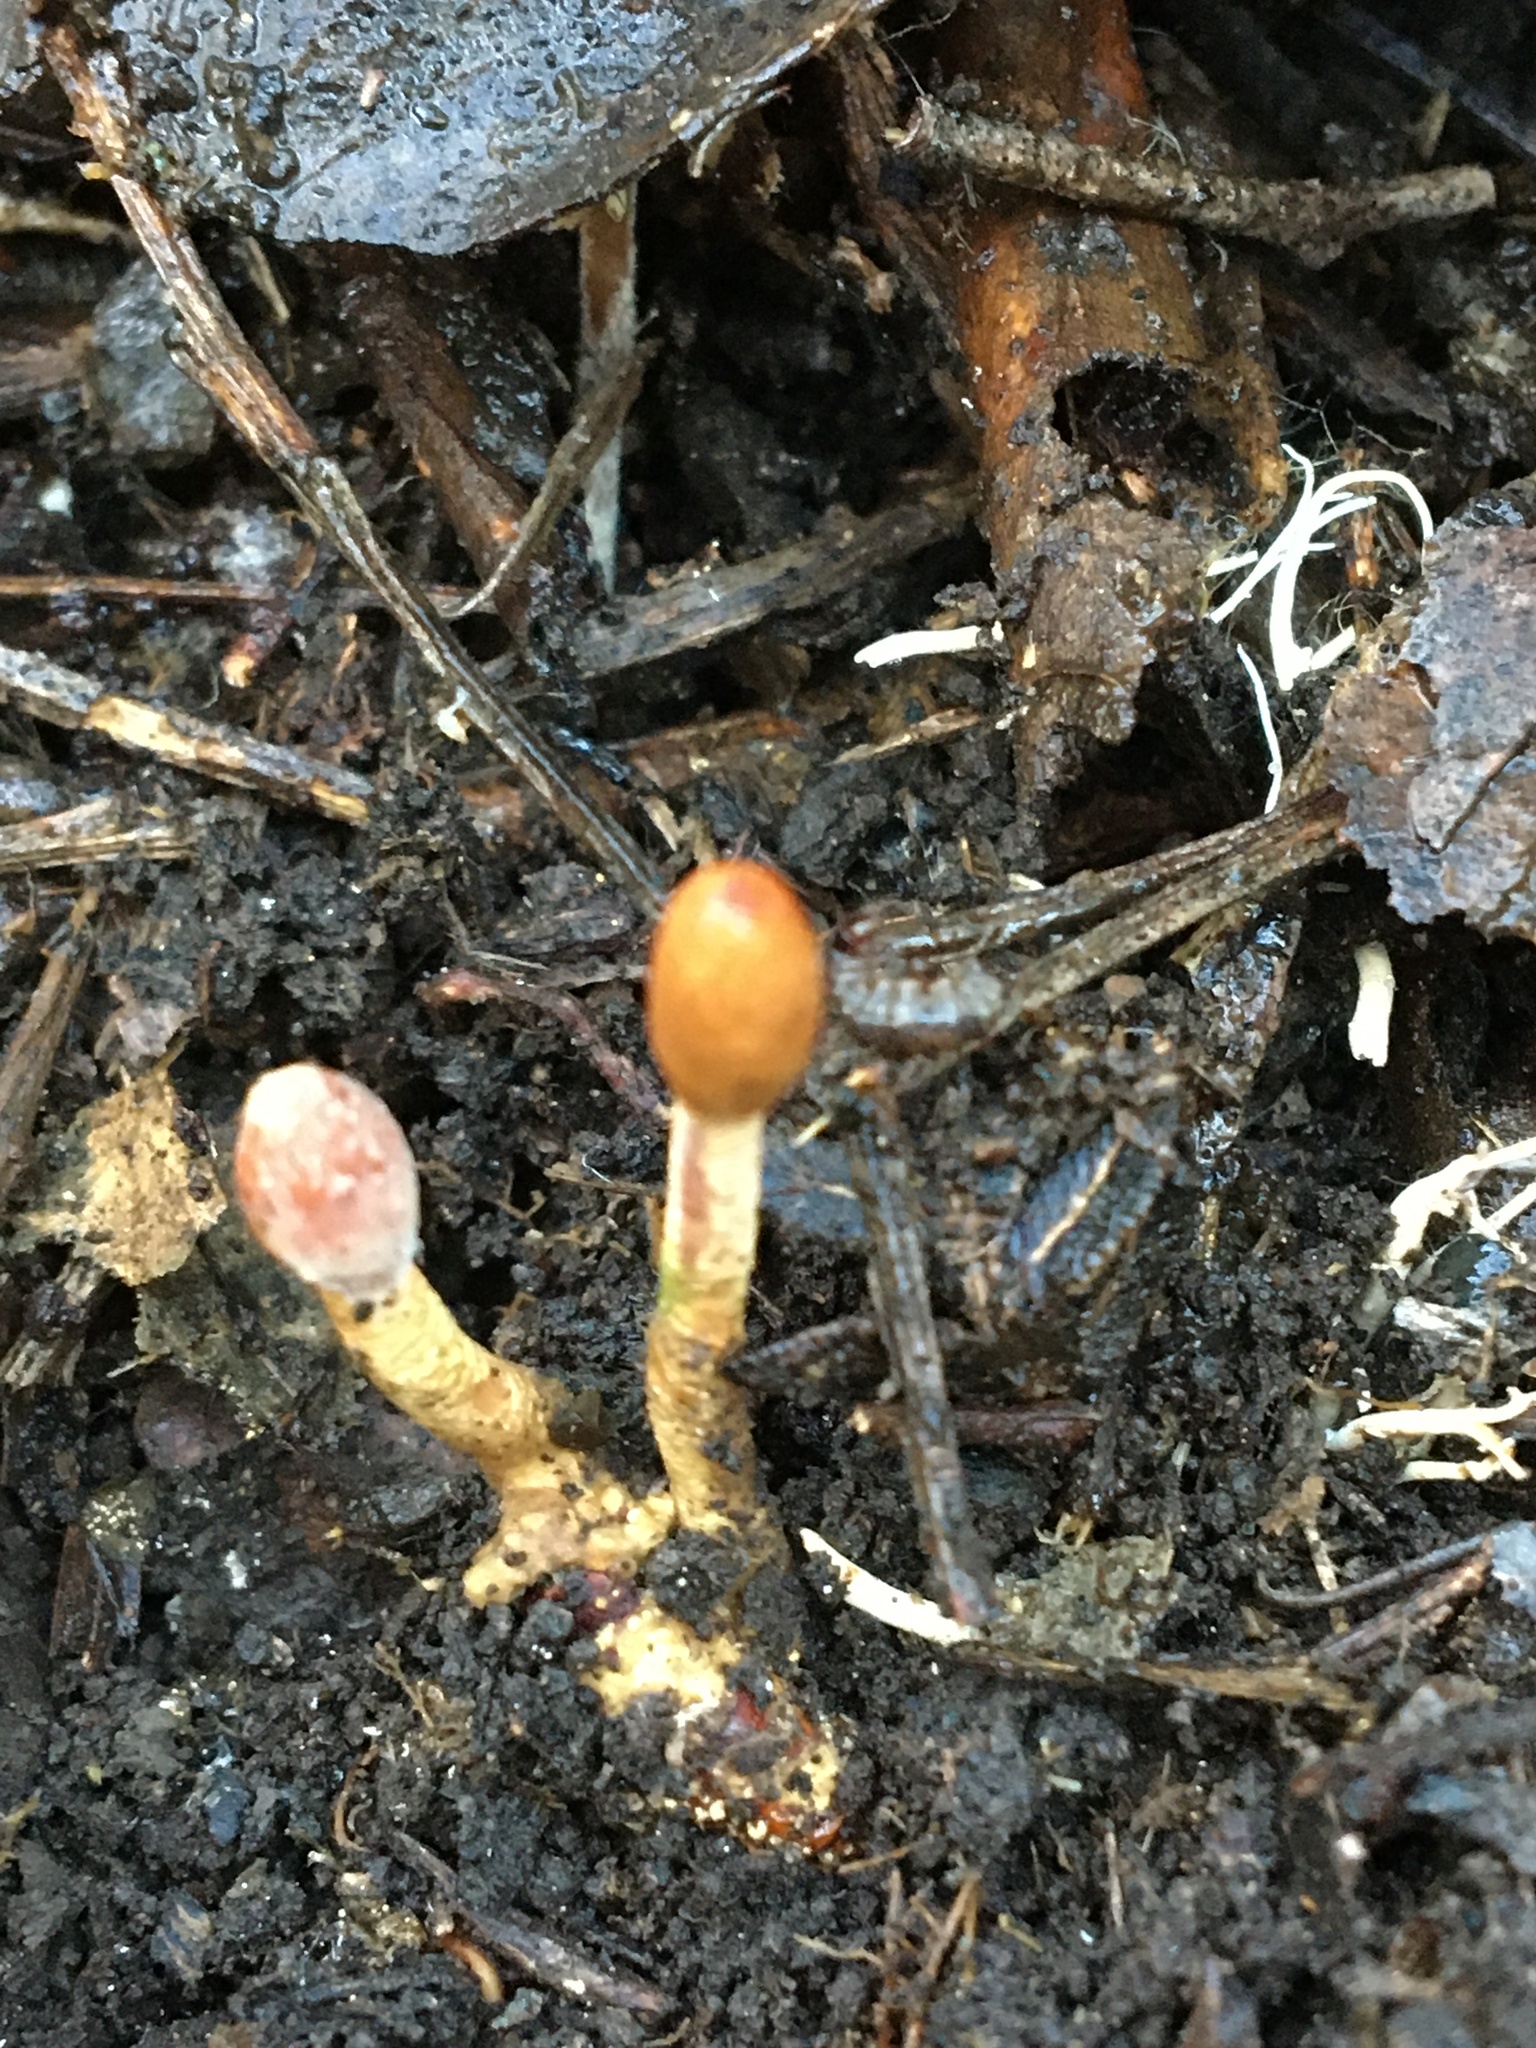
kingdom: Fungi
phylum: Ascomycota
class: Sordariomycetes
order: Hypocreales
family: Cordycipitaceae
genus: Cordyceps
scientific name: Cordyceps meneristitis
